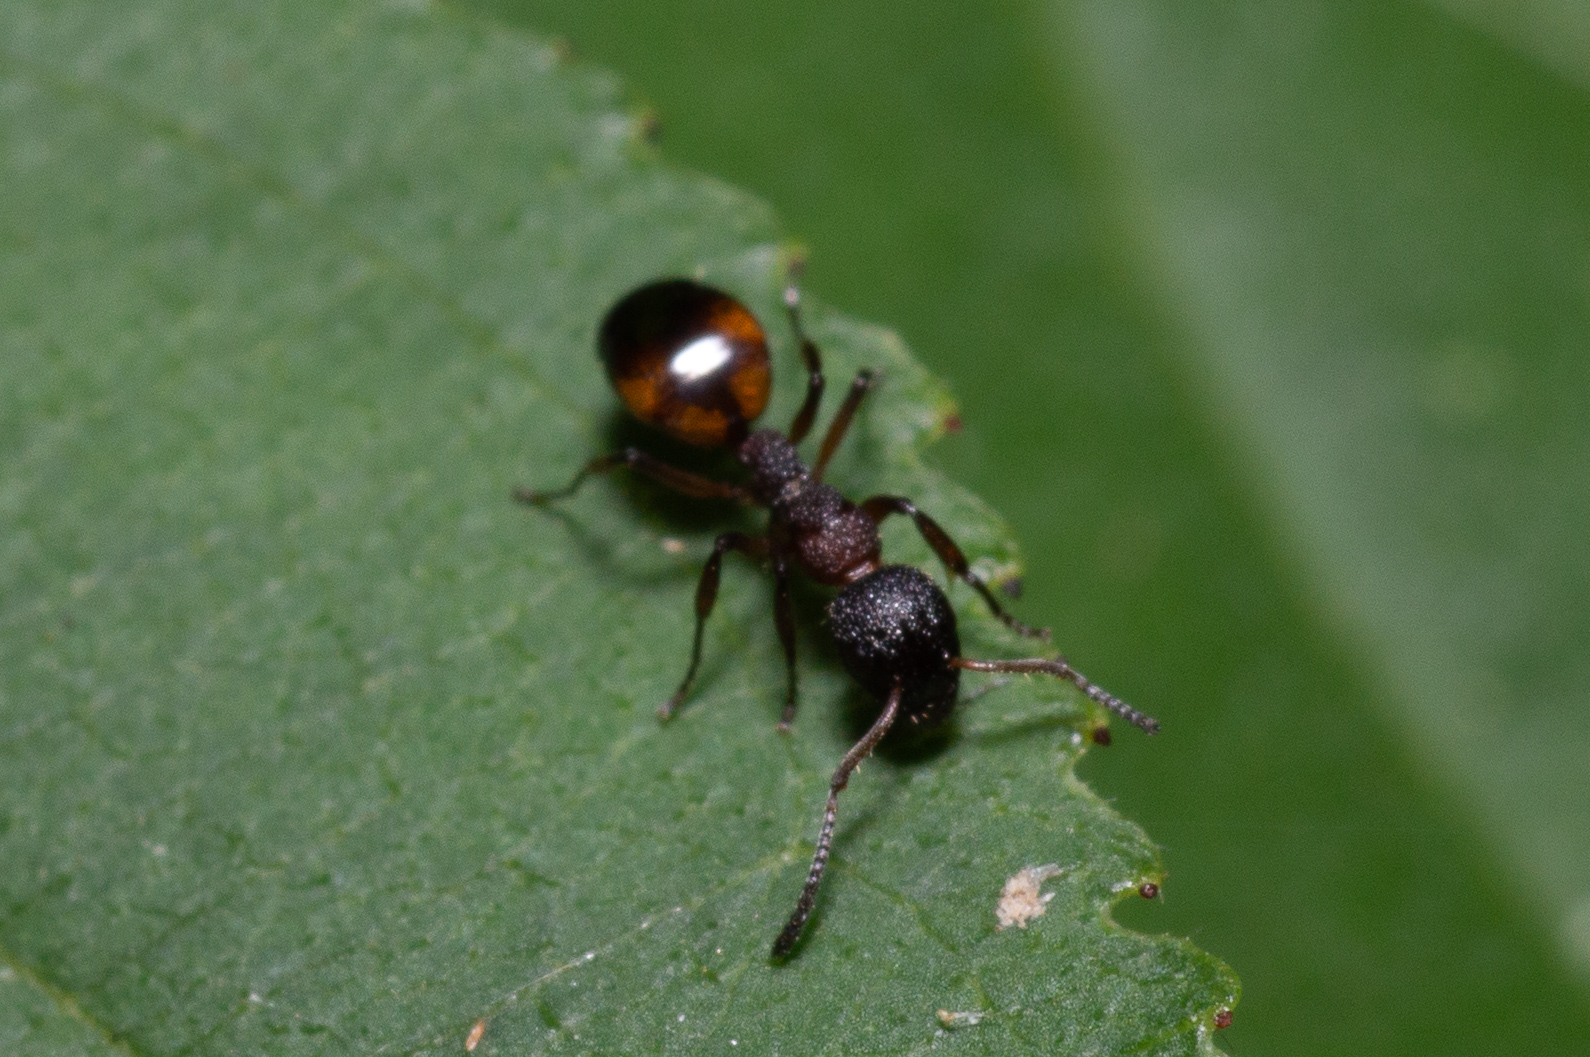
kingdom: Animalia
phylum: Arthropoda
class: Insecta
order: Hymenoptera
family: Formicidae
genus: Dolichoderus
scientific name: Dolichoderus plagiatus
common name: Mottled dolichoderus
